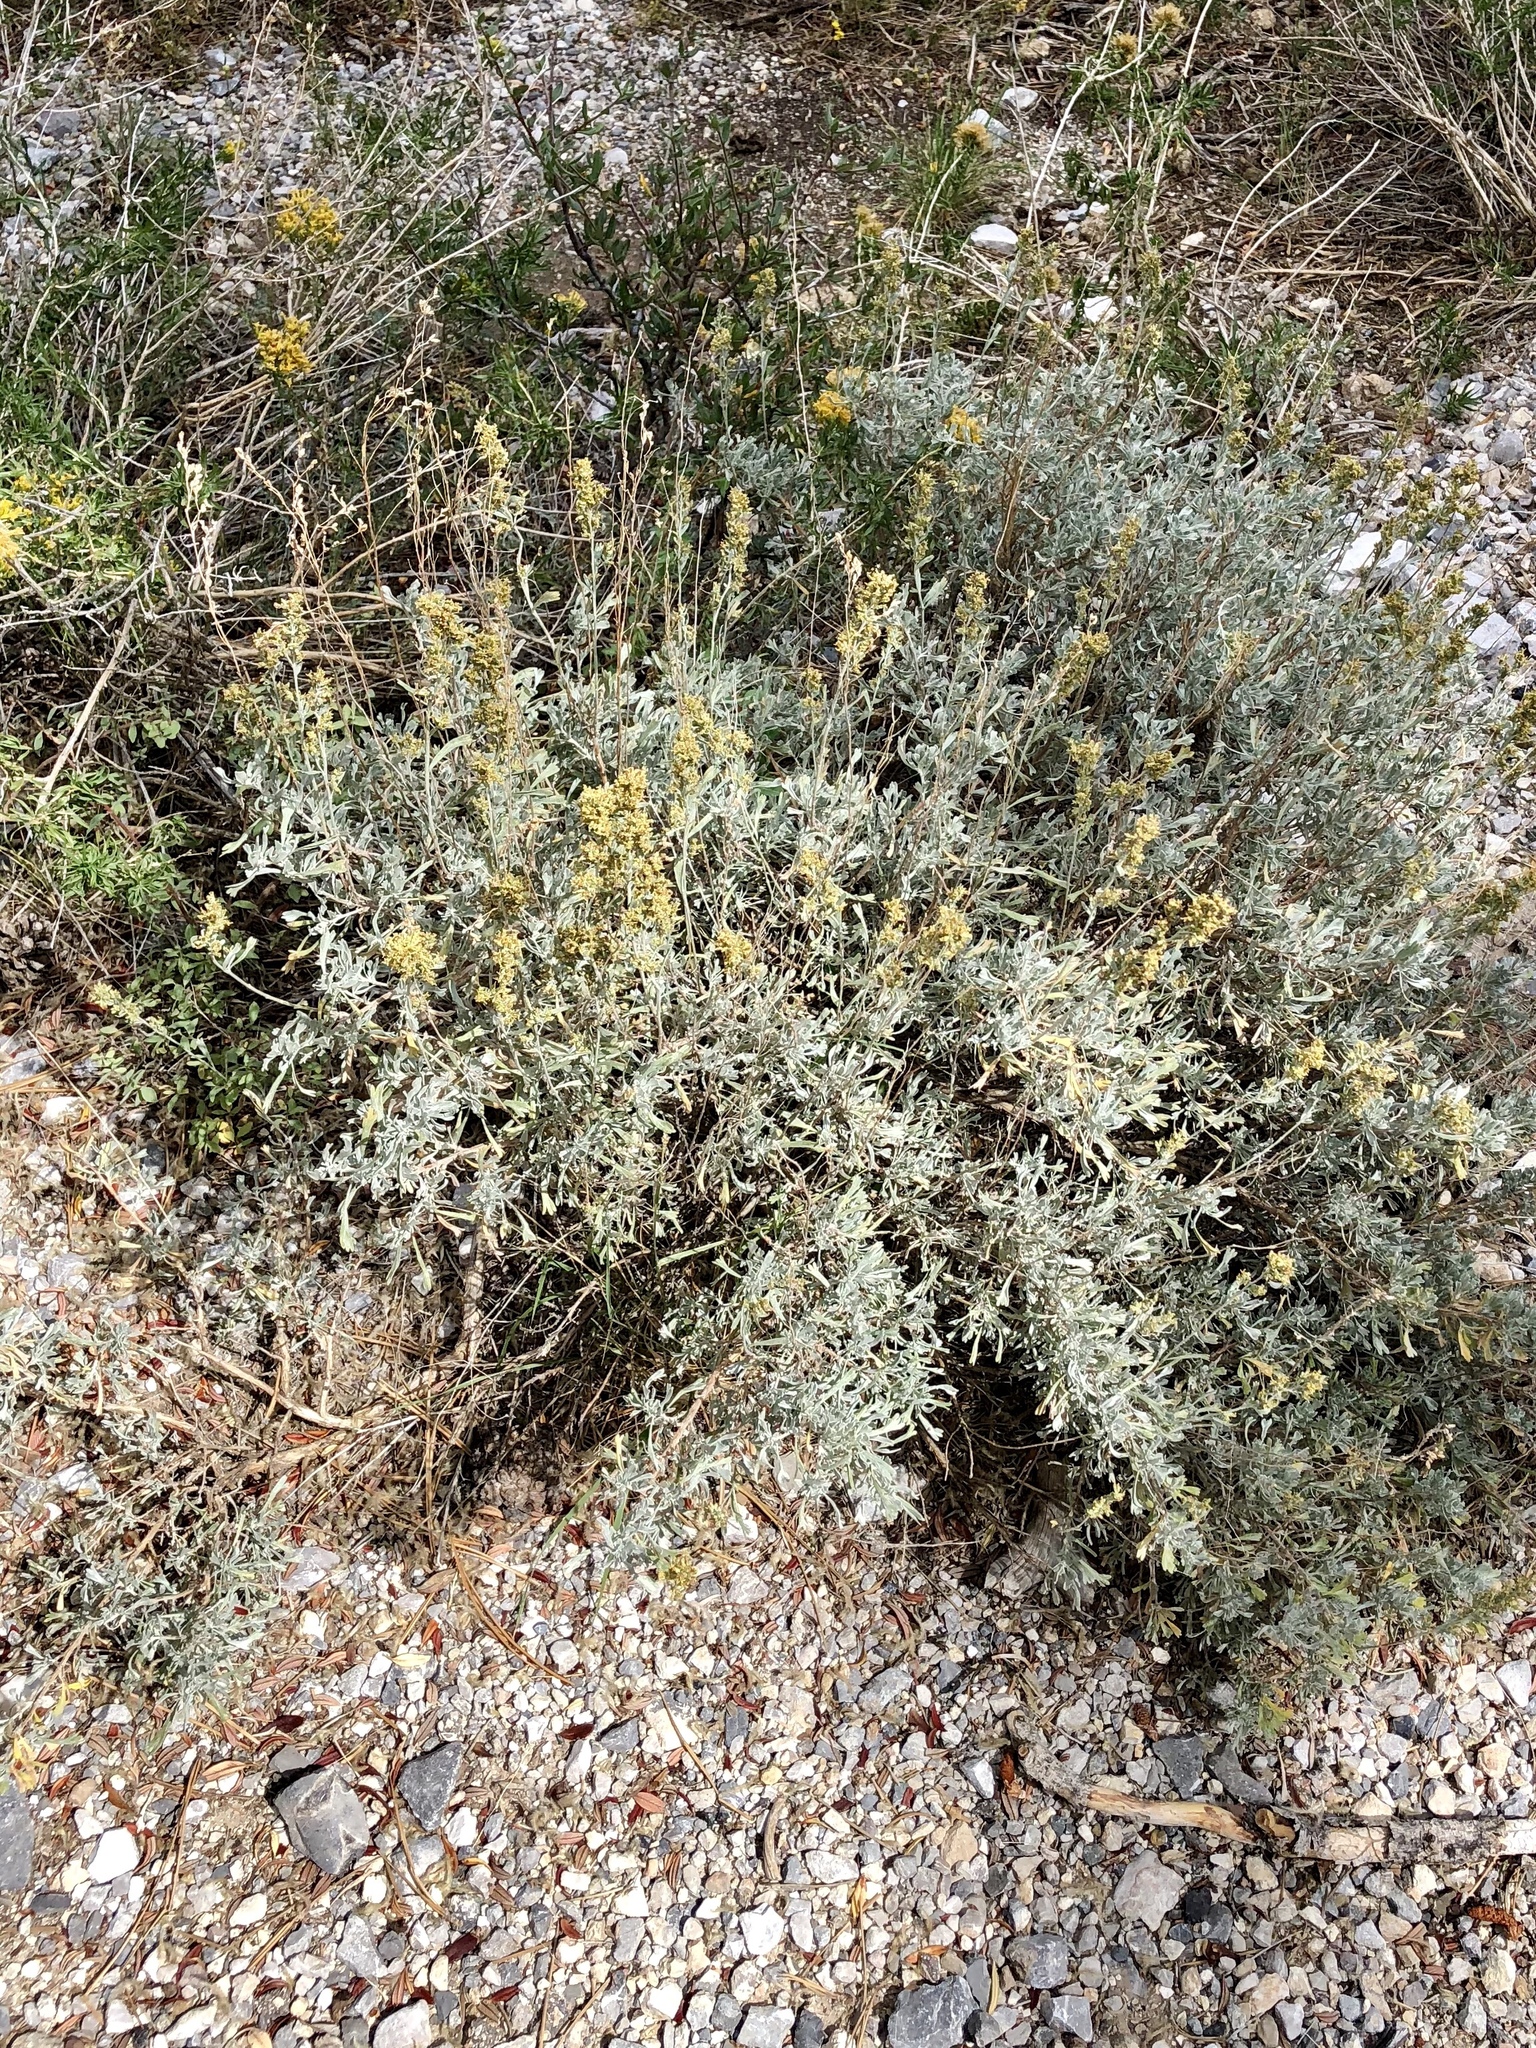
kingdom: Plantae
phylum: Tracheophyta
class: Magnoliopsida
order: Asterales
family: Asteraceae
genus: Artemisia
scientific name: Artemisia tridentata
